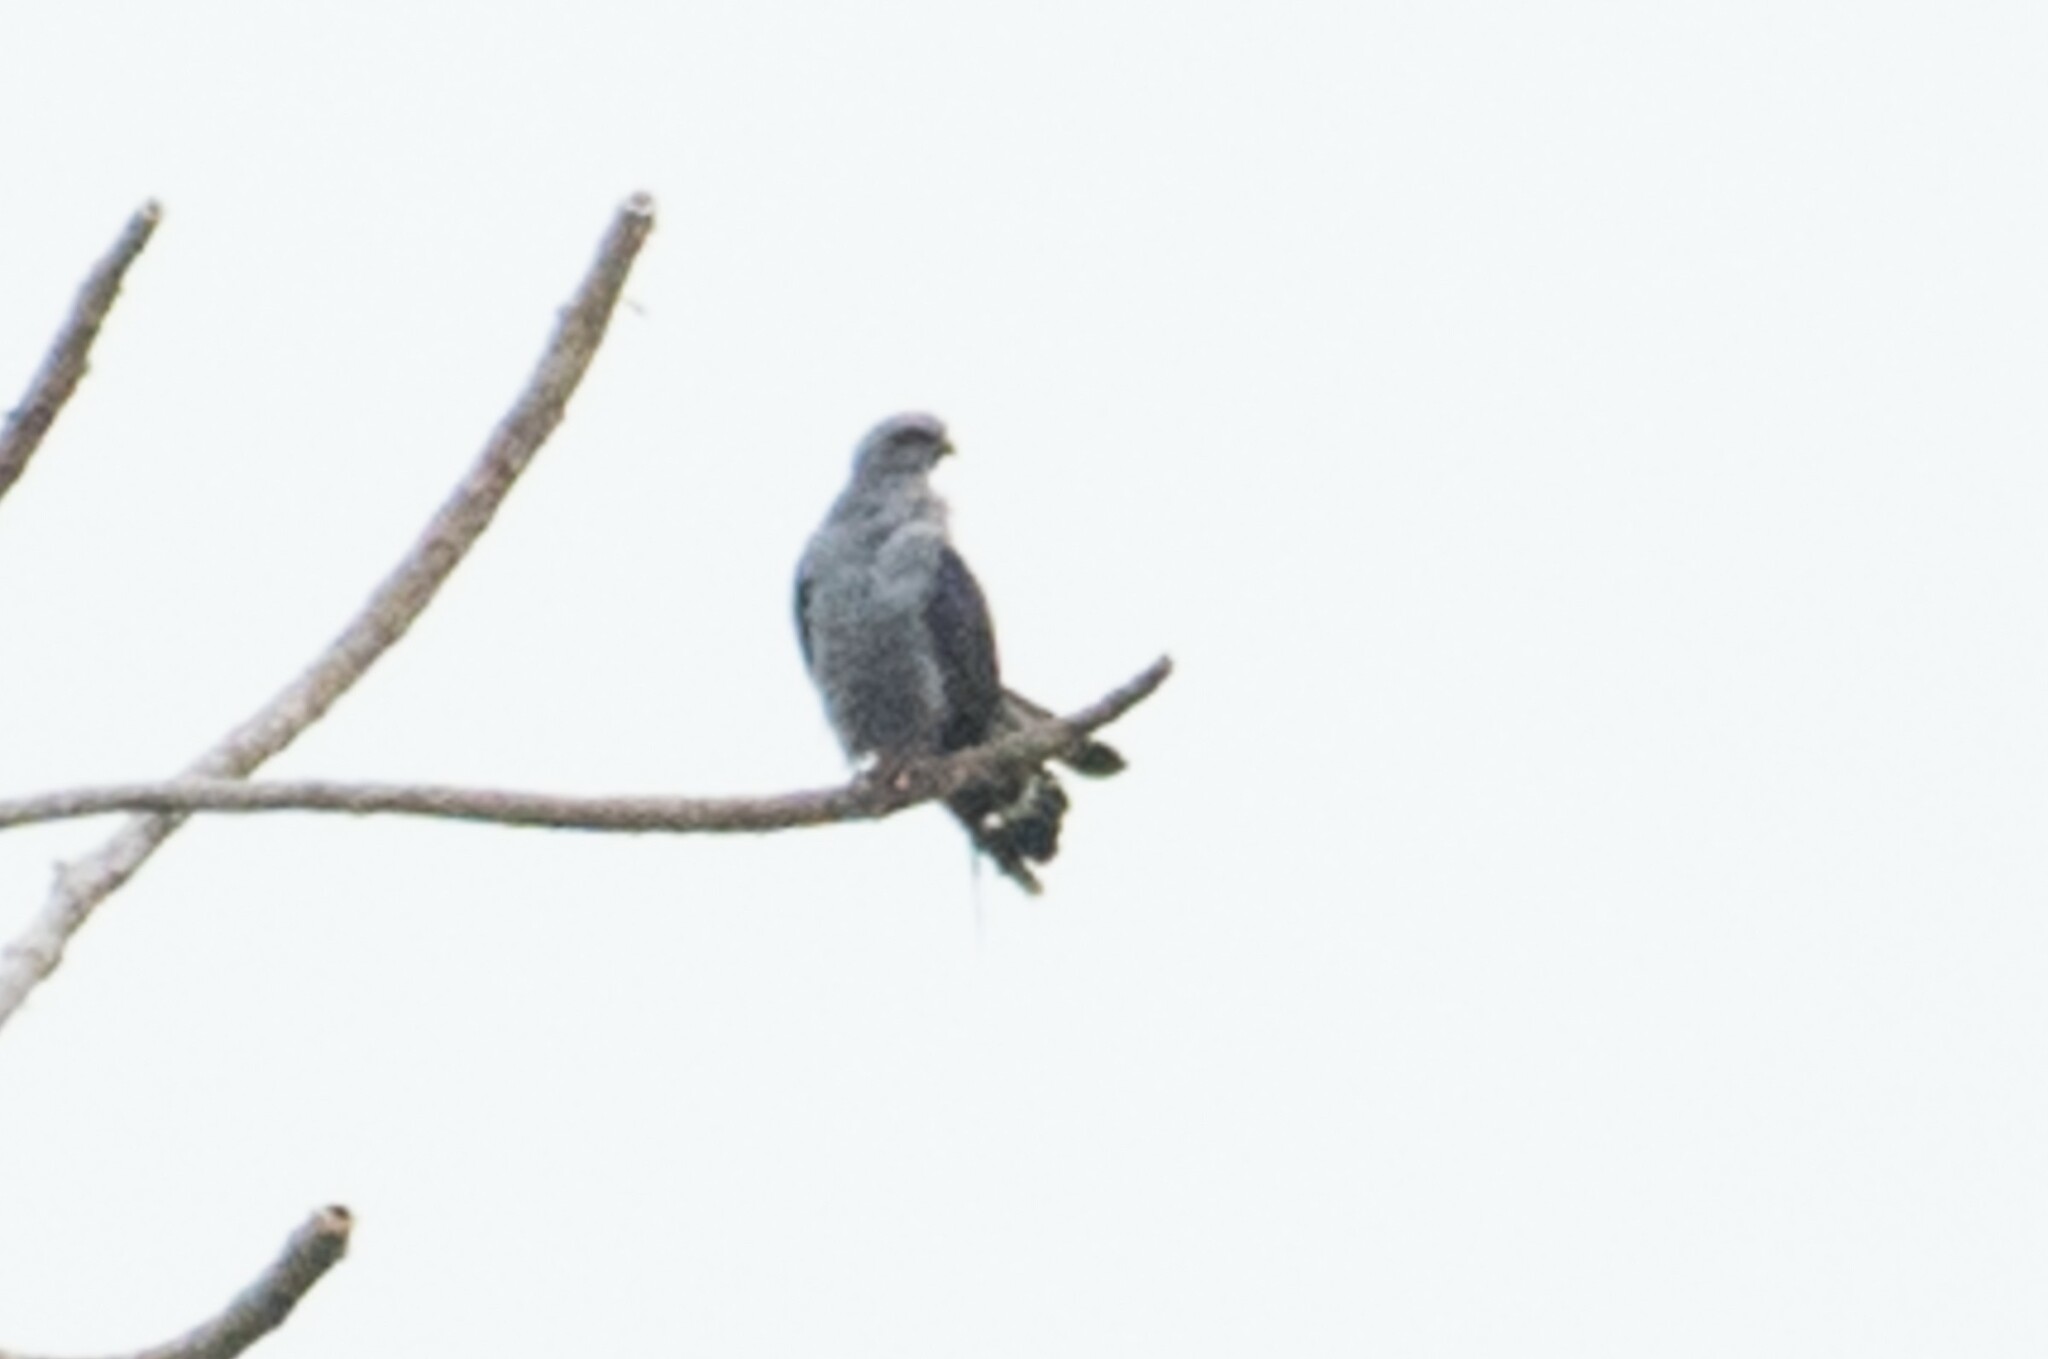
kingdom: Animalia
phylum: Chordata
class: Aves
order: Accipitriformes
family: Accipitridae
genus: Ictinia
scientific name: Ictinia plumbea
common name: Plumbeous kite
